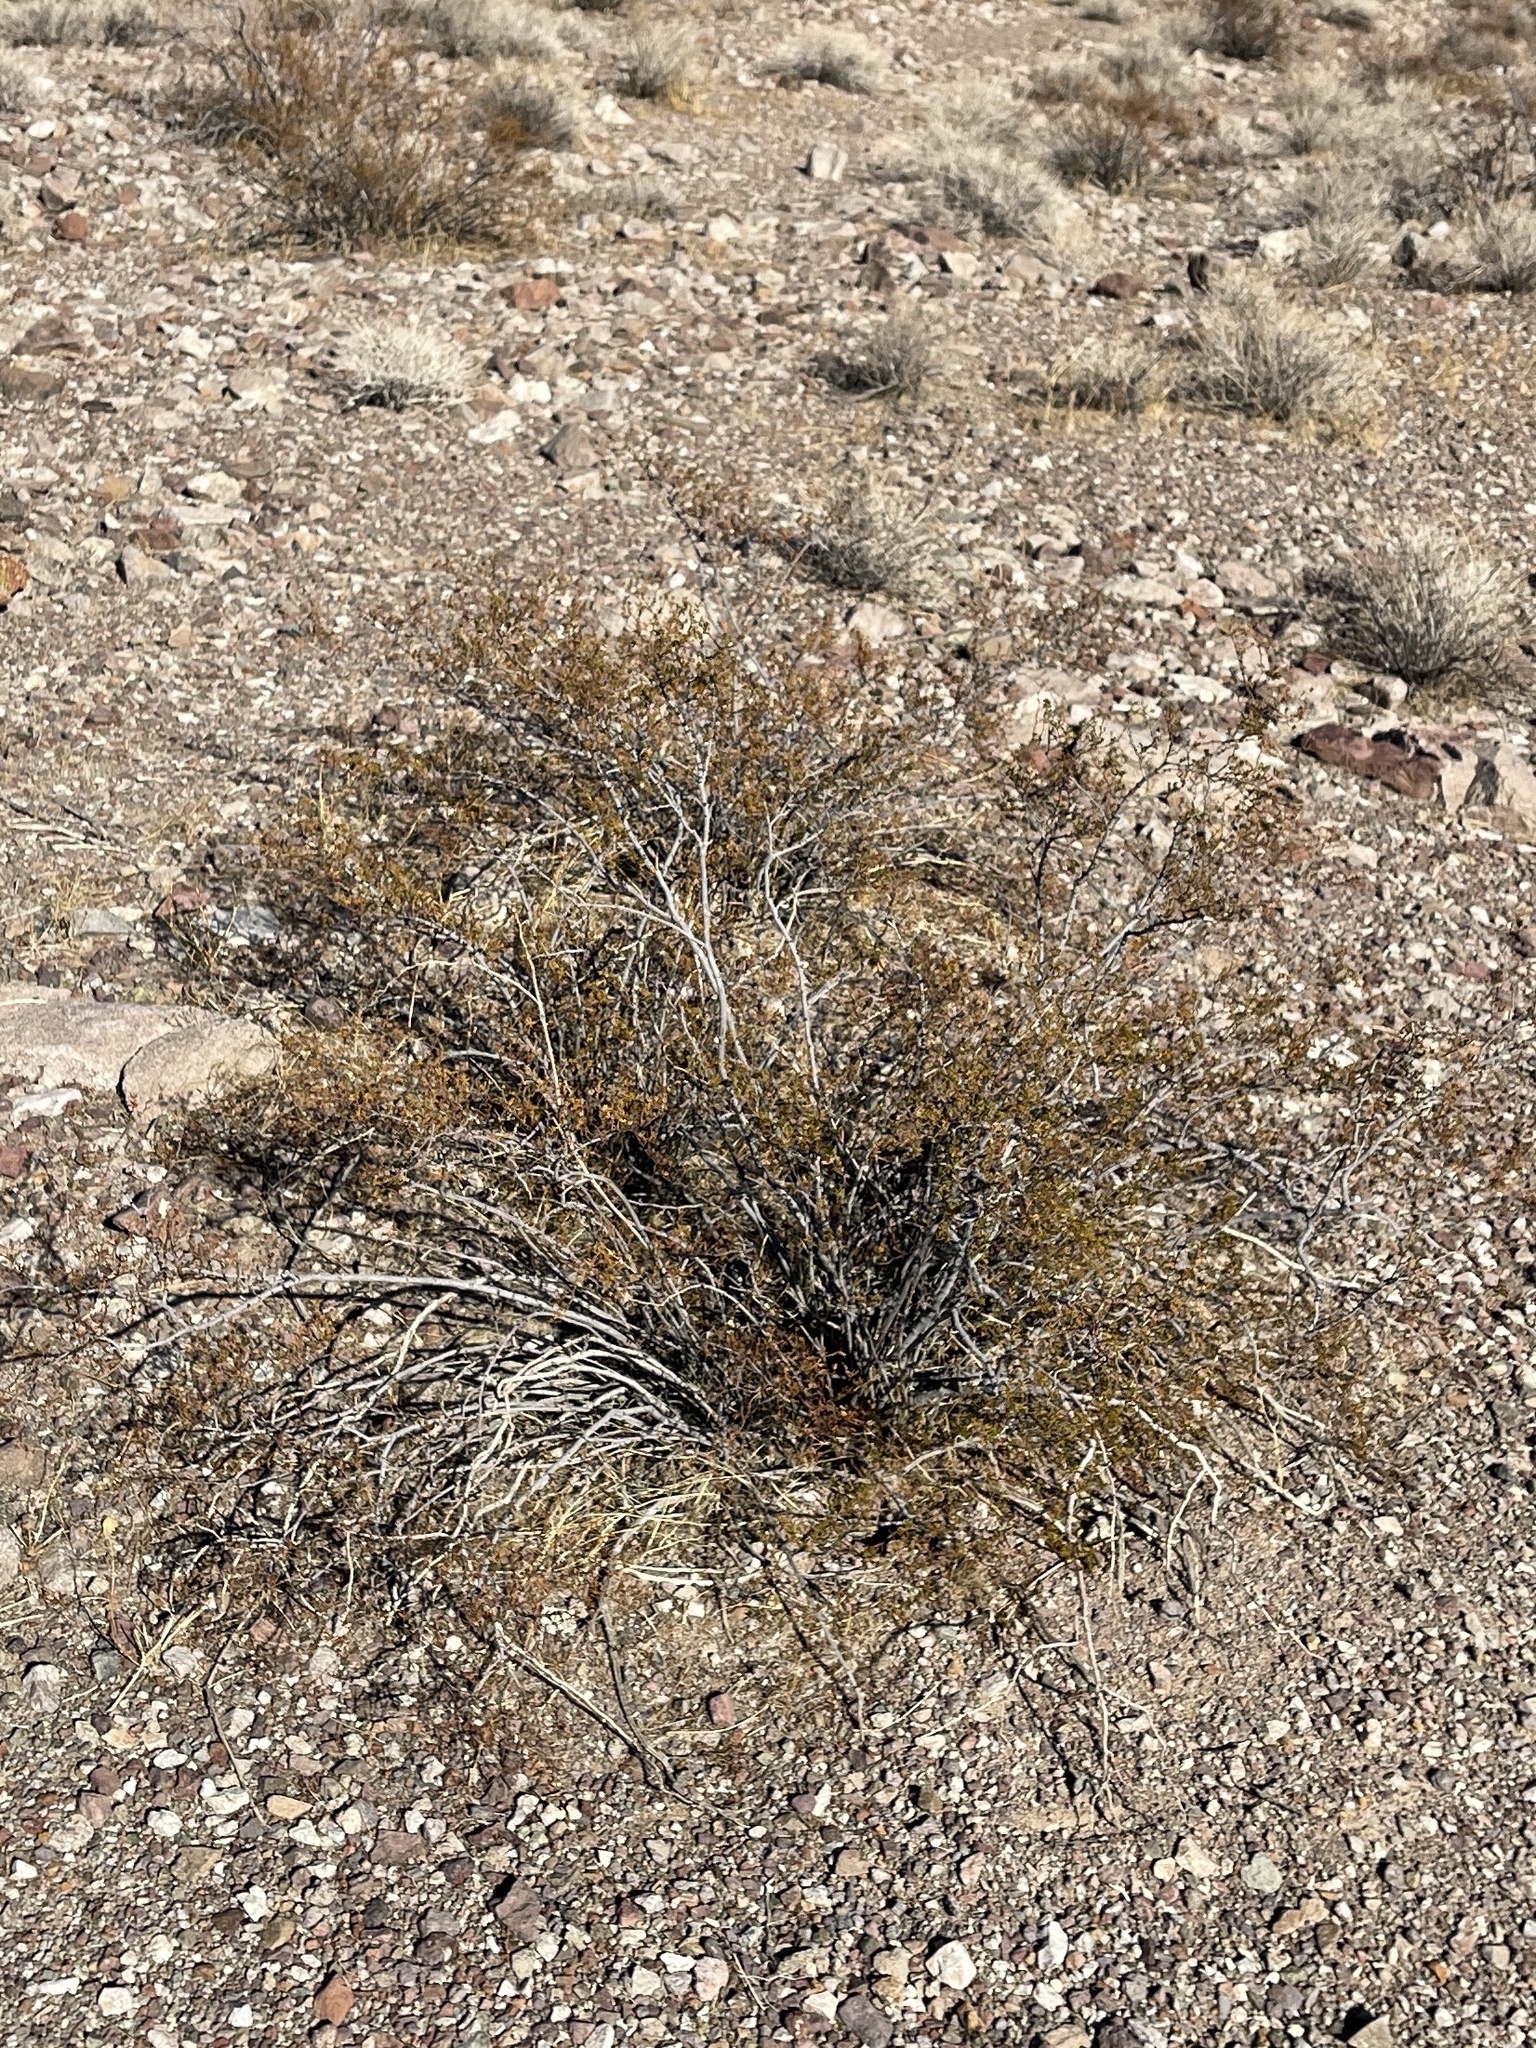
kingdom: Plantae
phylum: Tracheophyta
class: Magnoliopsida
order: Zygophyllales
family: Zygophyllaceae
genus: Larrea
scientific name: Larrea tridentata
